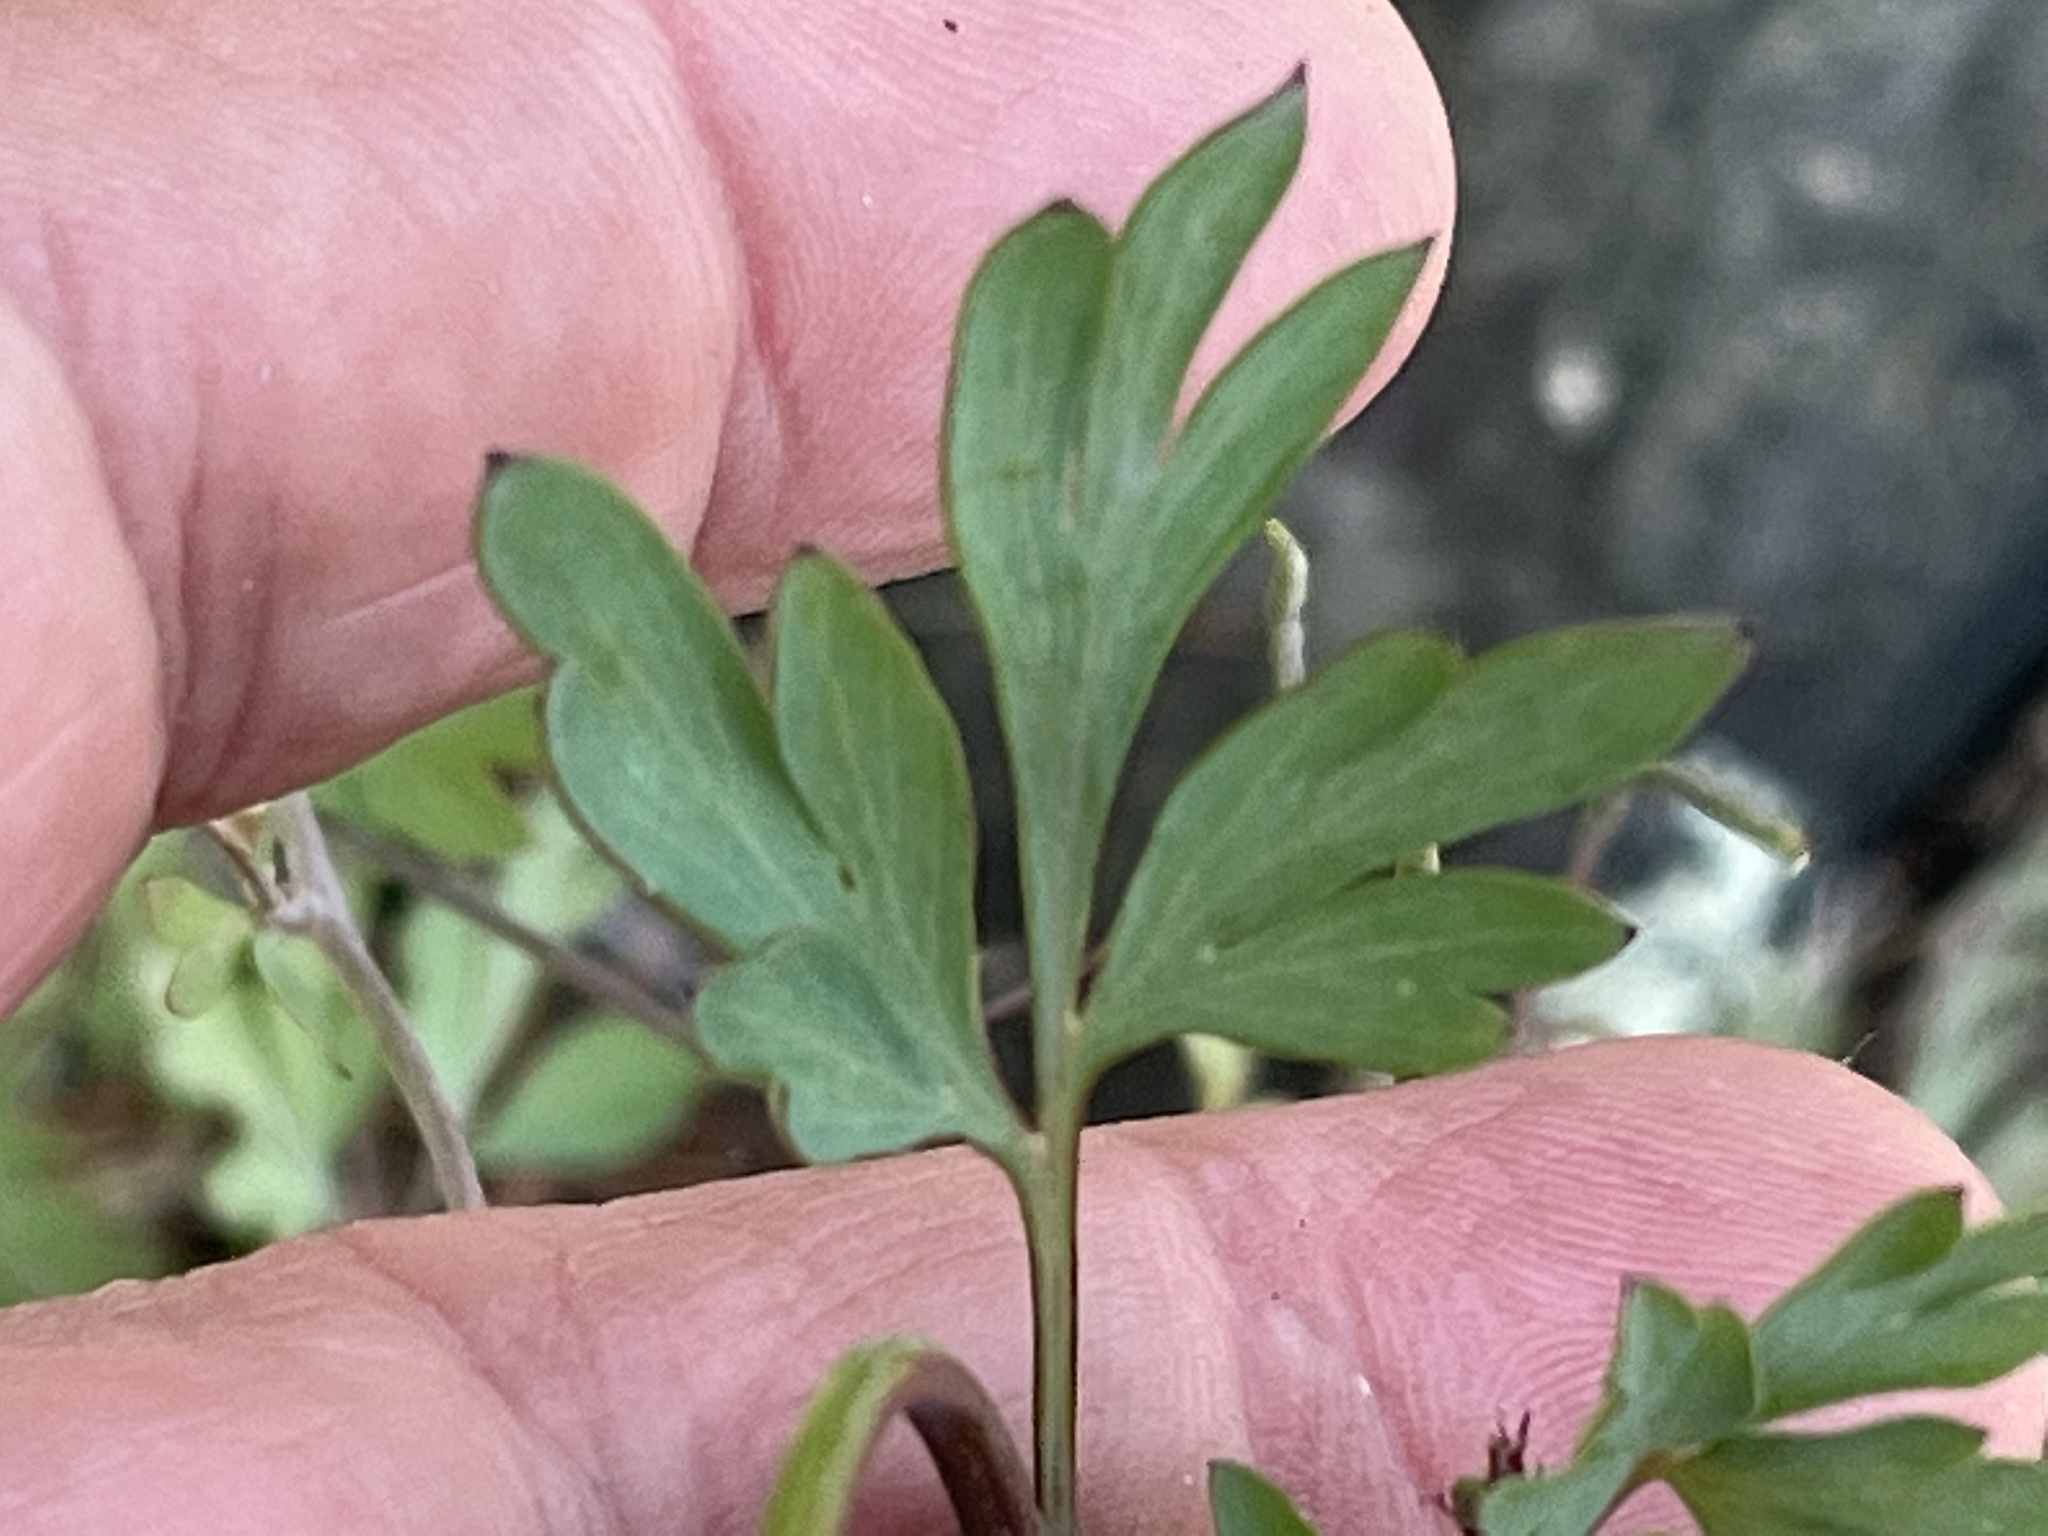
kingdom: Plantae
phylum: Tracheophyta
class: Magnoliopsida
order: Ranunculales
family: Papaveraceae
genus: Capnoides
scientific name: Capnoides sempervirens
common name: Rock harlequin
